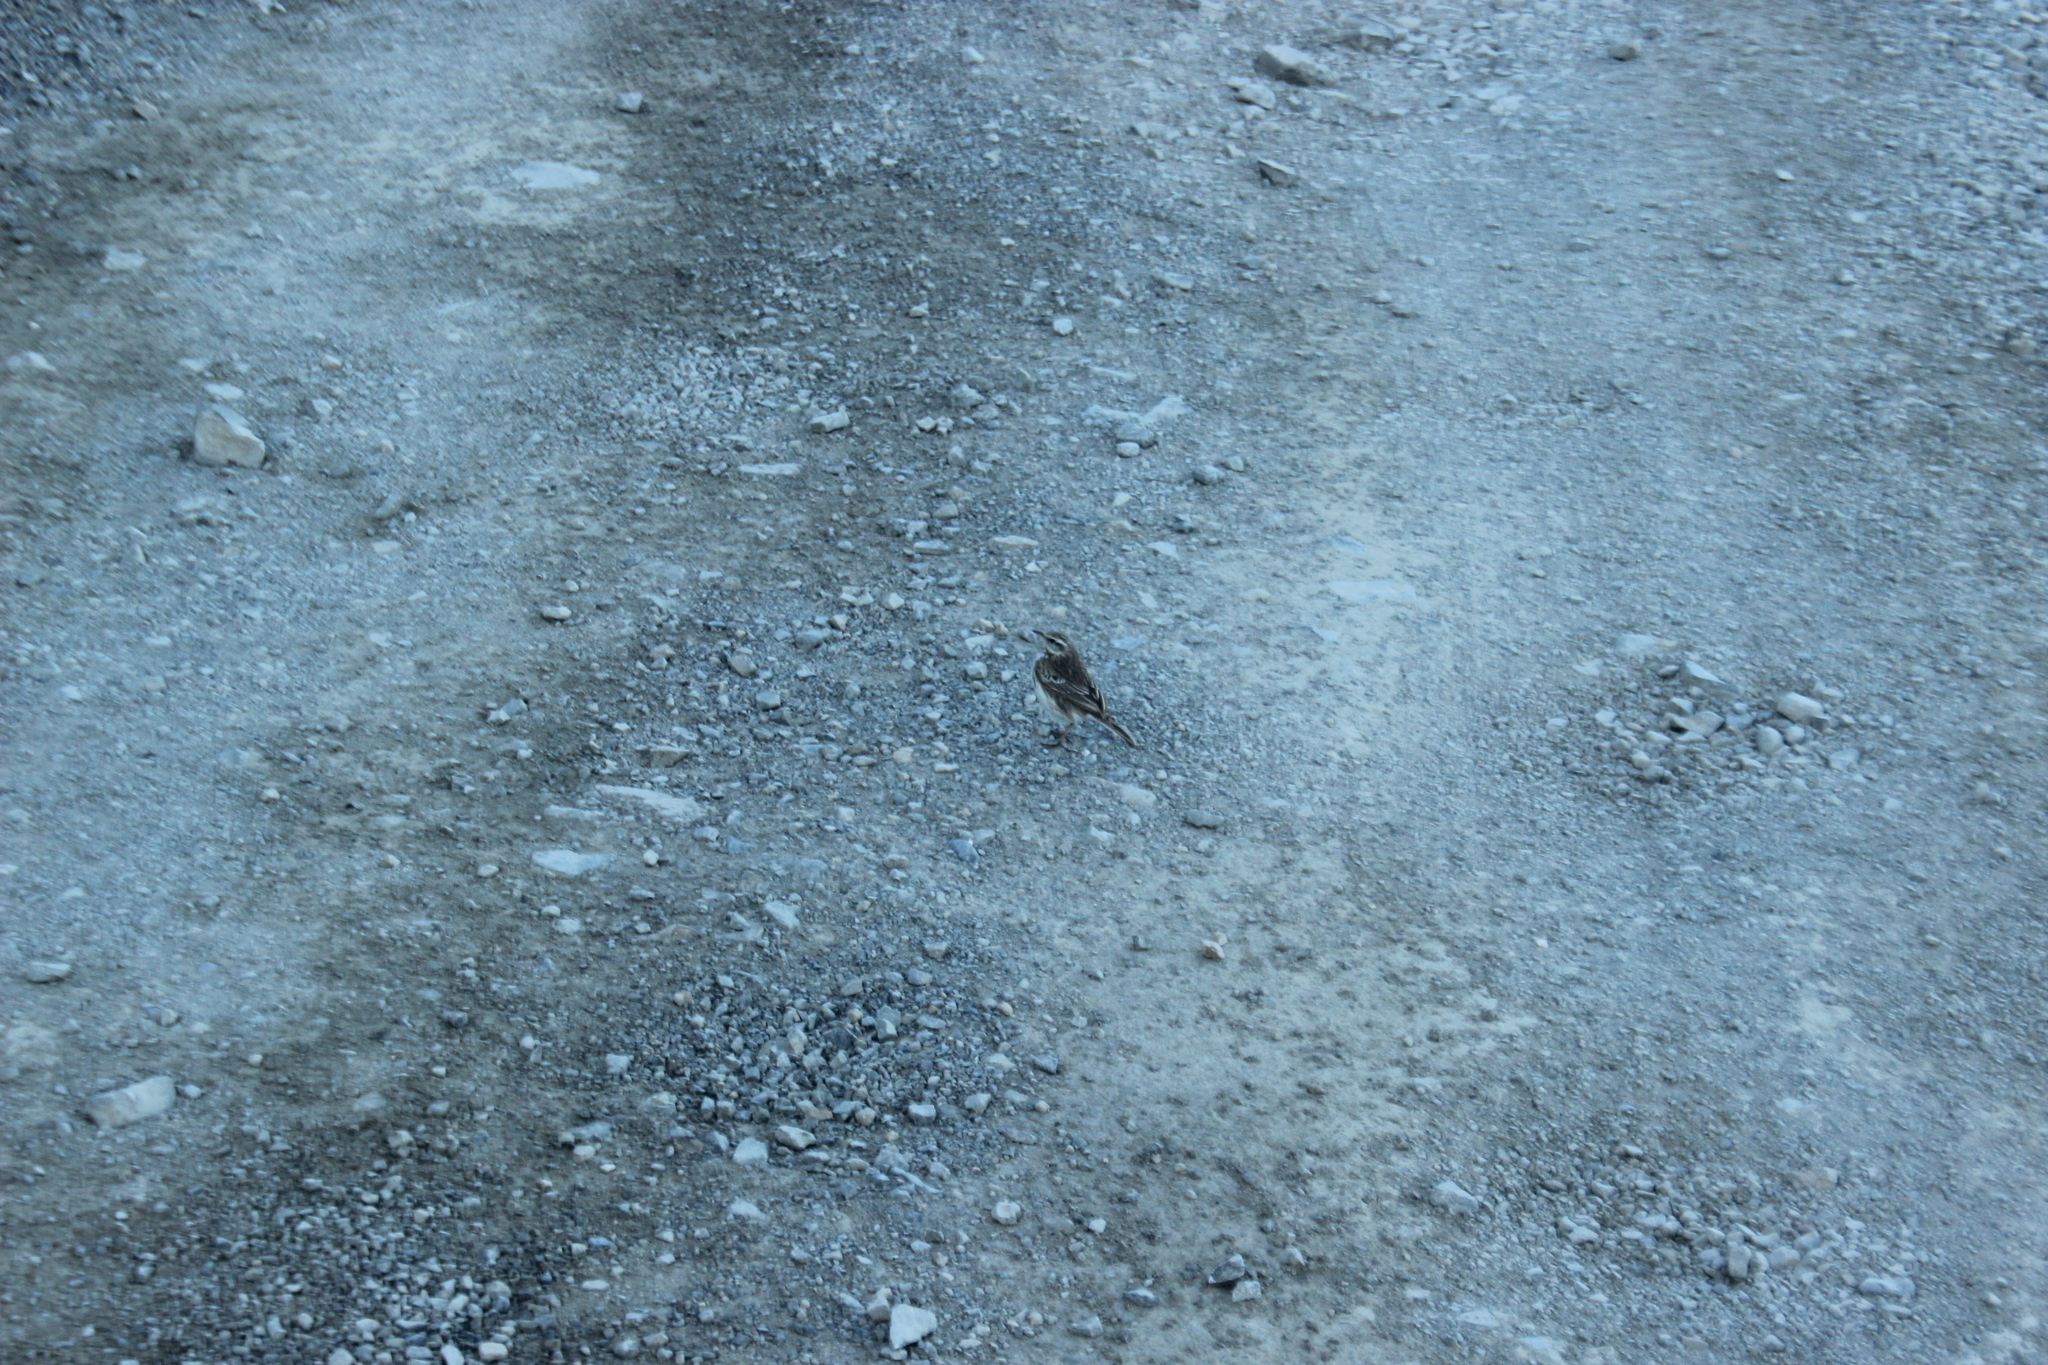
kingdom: Animalia
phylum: Chordata
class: Aves
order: Passeriformes
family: Motacillidae
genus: Anthus
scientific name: Anthus novaeseelandiae
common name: New zealand pipit
